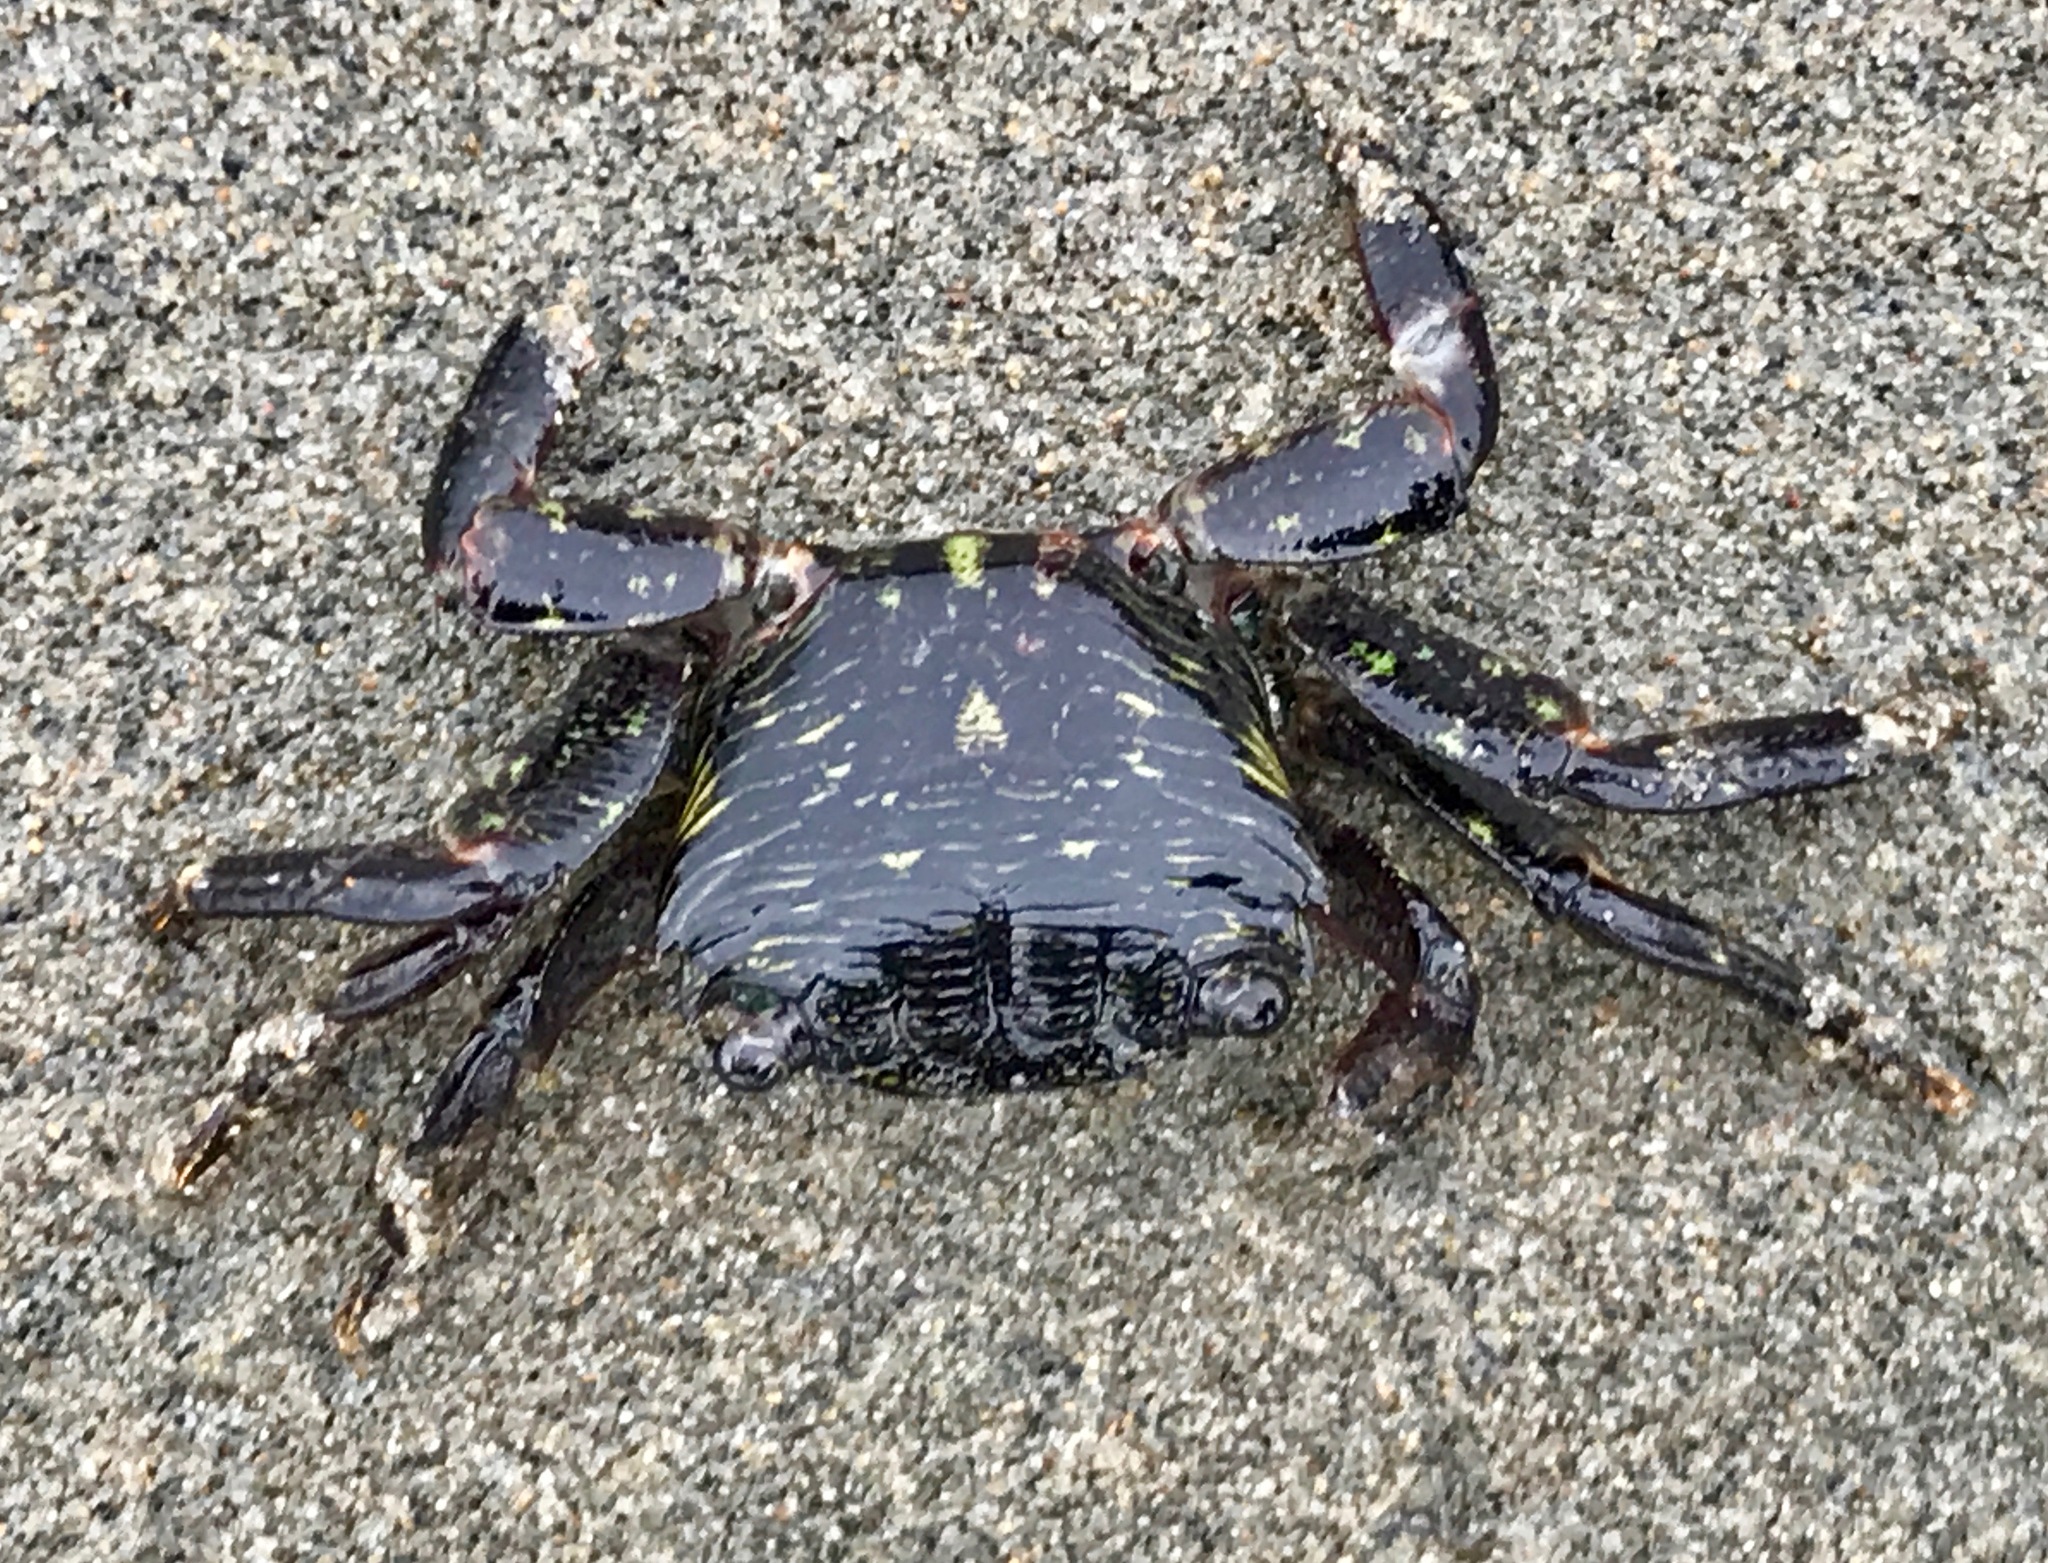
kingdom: Animalia
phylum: Arthropoda
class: Malacostraca
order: Decapoda
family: Grapsidae
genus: Pachygrapsus
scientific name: Pachygrapsus crassipes
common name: Striped shore crab
